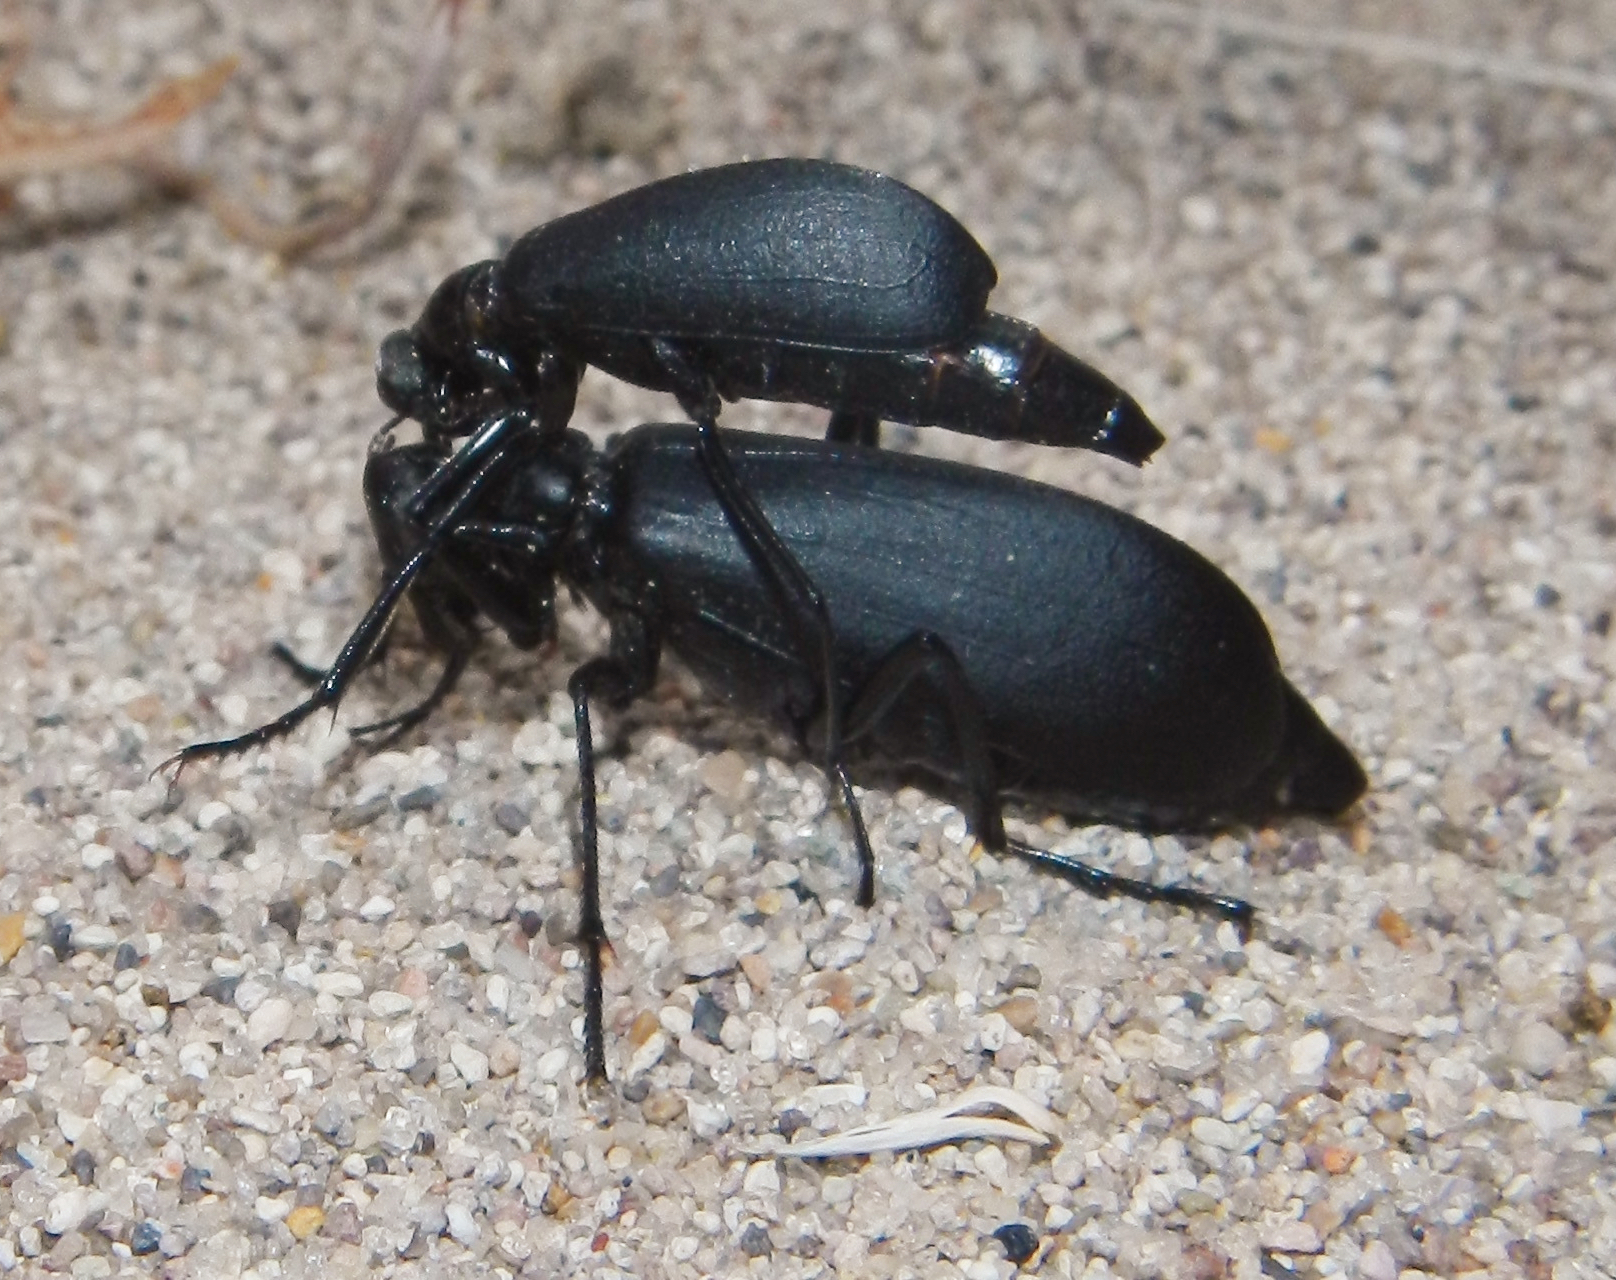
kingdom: Animalia
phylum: Arthropoda
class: Insecta
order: Coleoptera
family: Meloidae
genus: Phodaga
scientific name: Phodaga alticeps
